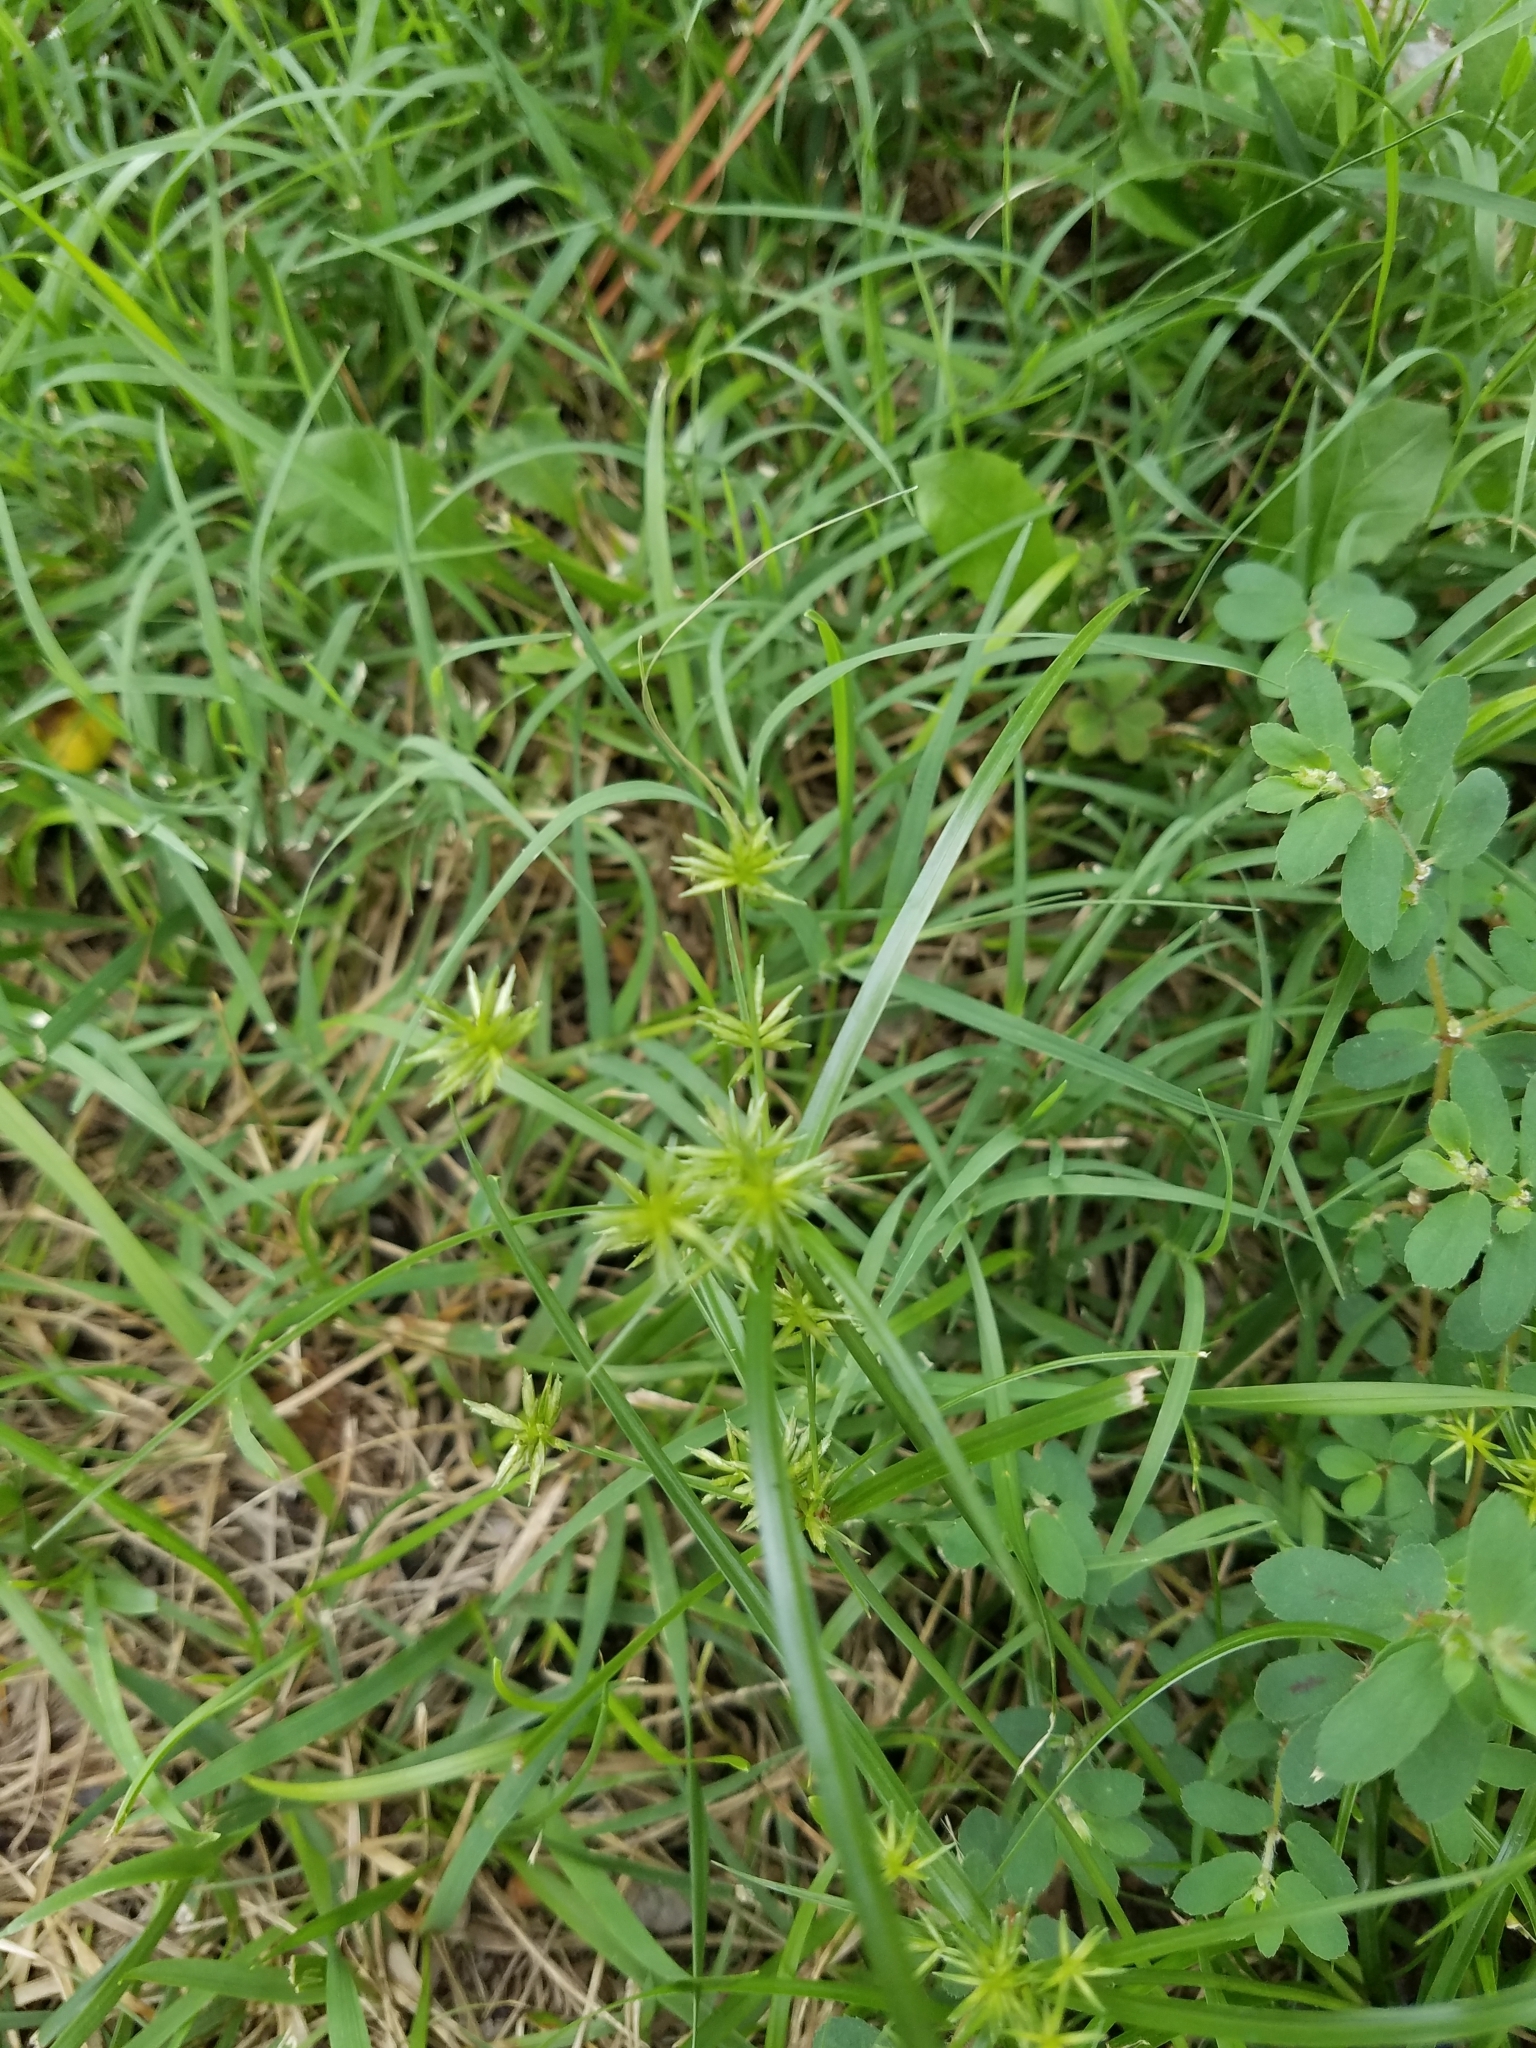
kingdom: Plantae
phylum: Tracheophyta
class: Liliopsida
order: Poales
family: Cyperaceae
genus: Cyperus
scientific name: Cyperus croceus
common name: Baldwin's flatsedge
